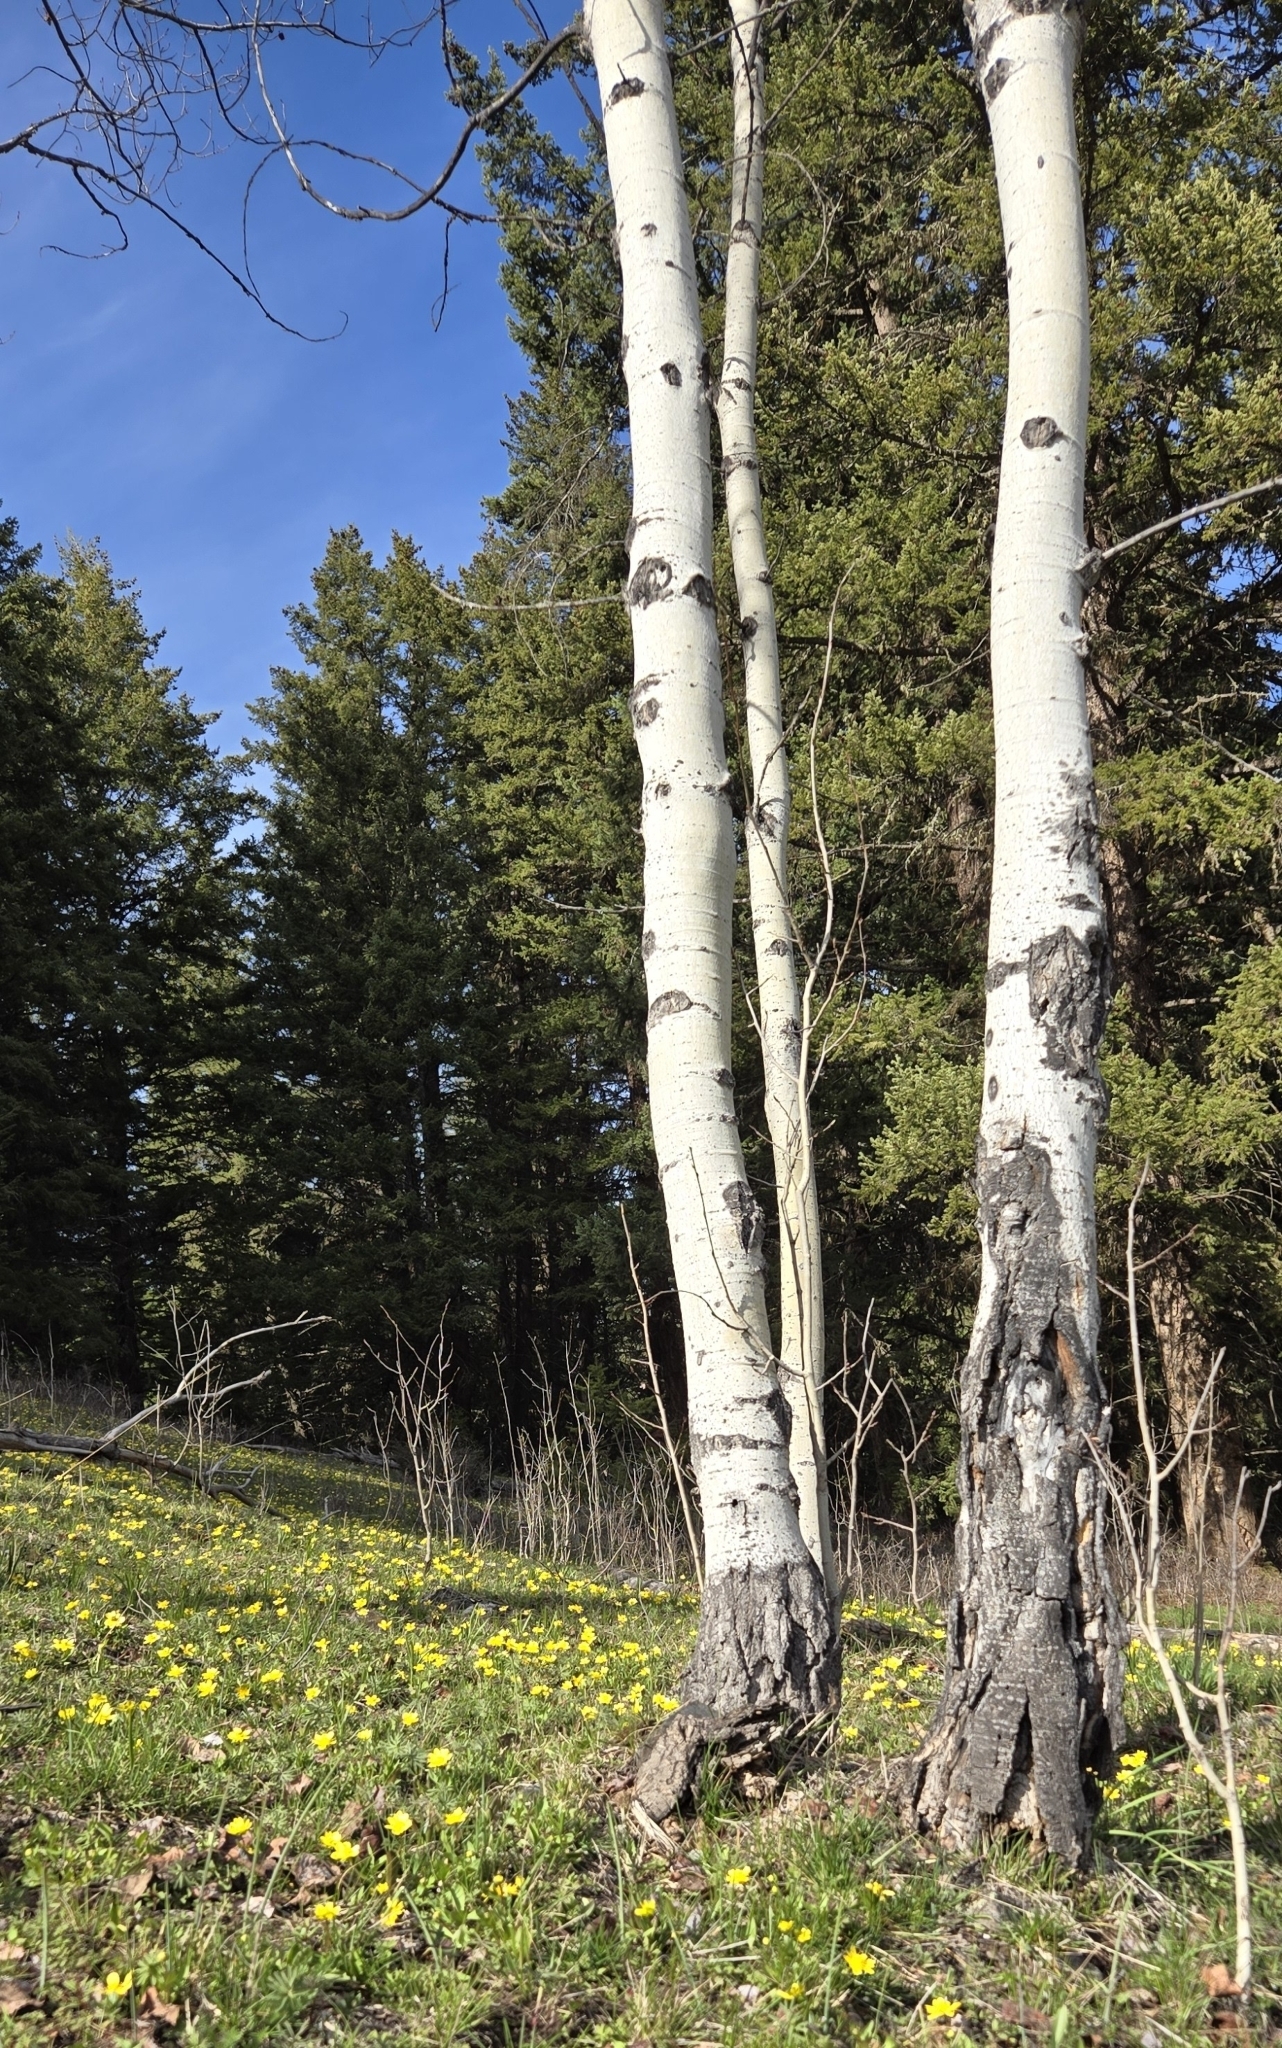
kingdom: Plantae
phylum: Tracheophyta
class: Magnoliopsida
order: Malpighiales
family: Salicaceae
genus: Populus
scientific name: Populus tremuloides
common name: Quaking aspen
